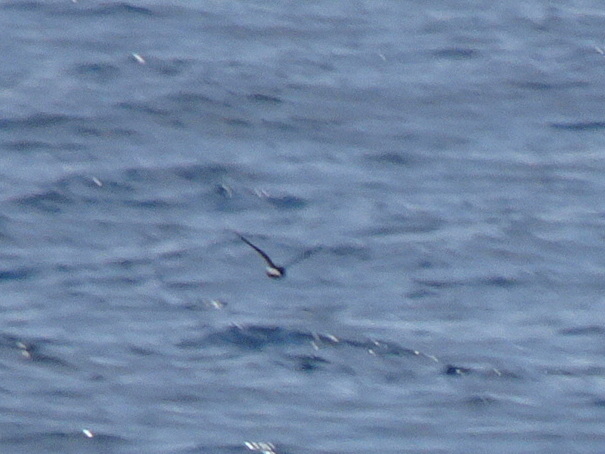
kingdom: Animalia
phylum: Chordata
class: Aves
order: Procellariiformes
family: Hydrobatidae
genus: Hydrobates
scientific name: Hydrobates pelagicus
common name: European storm-petrel
